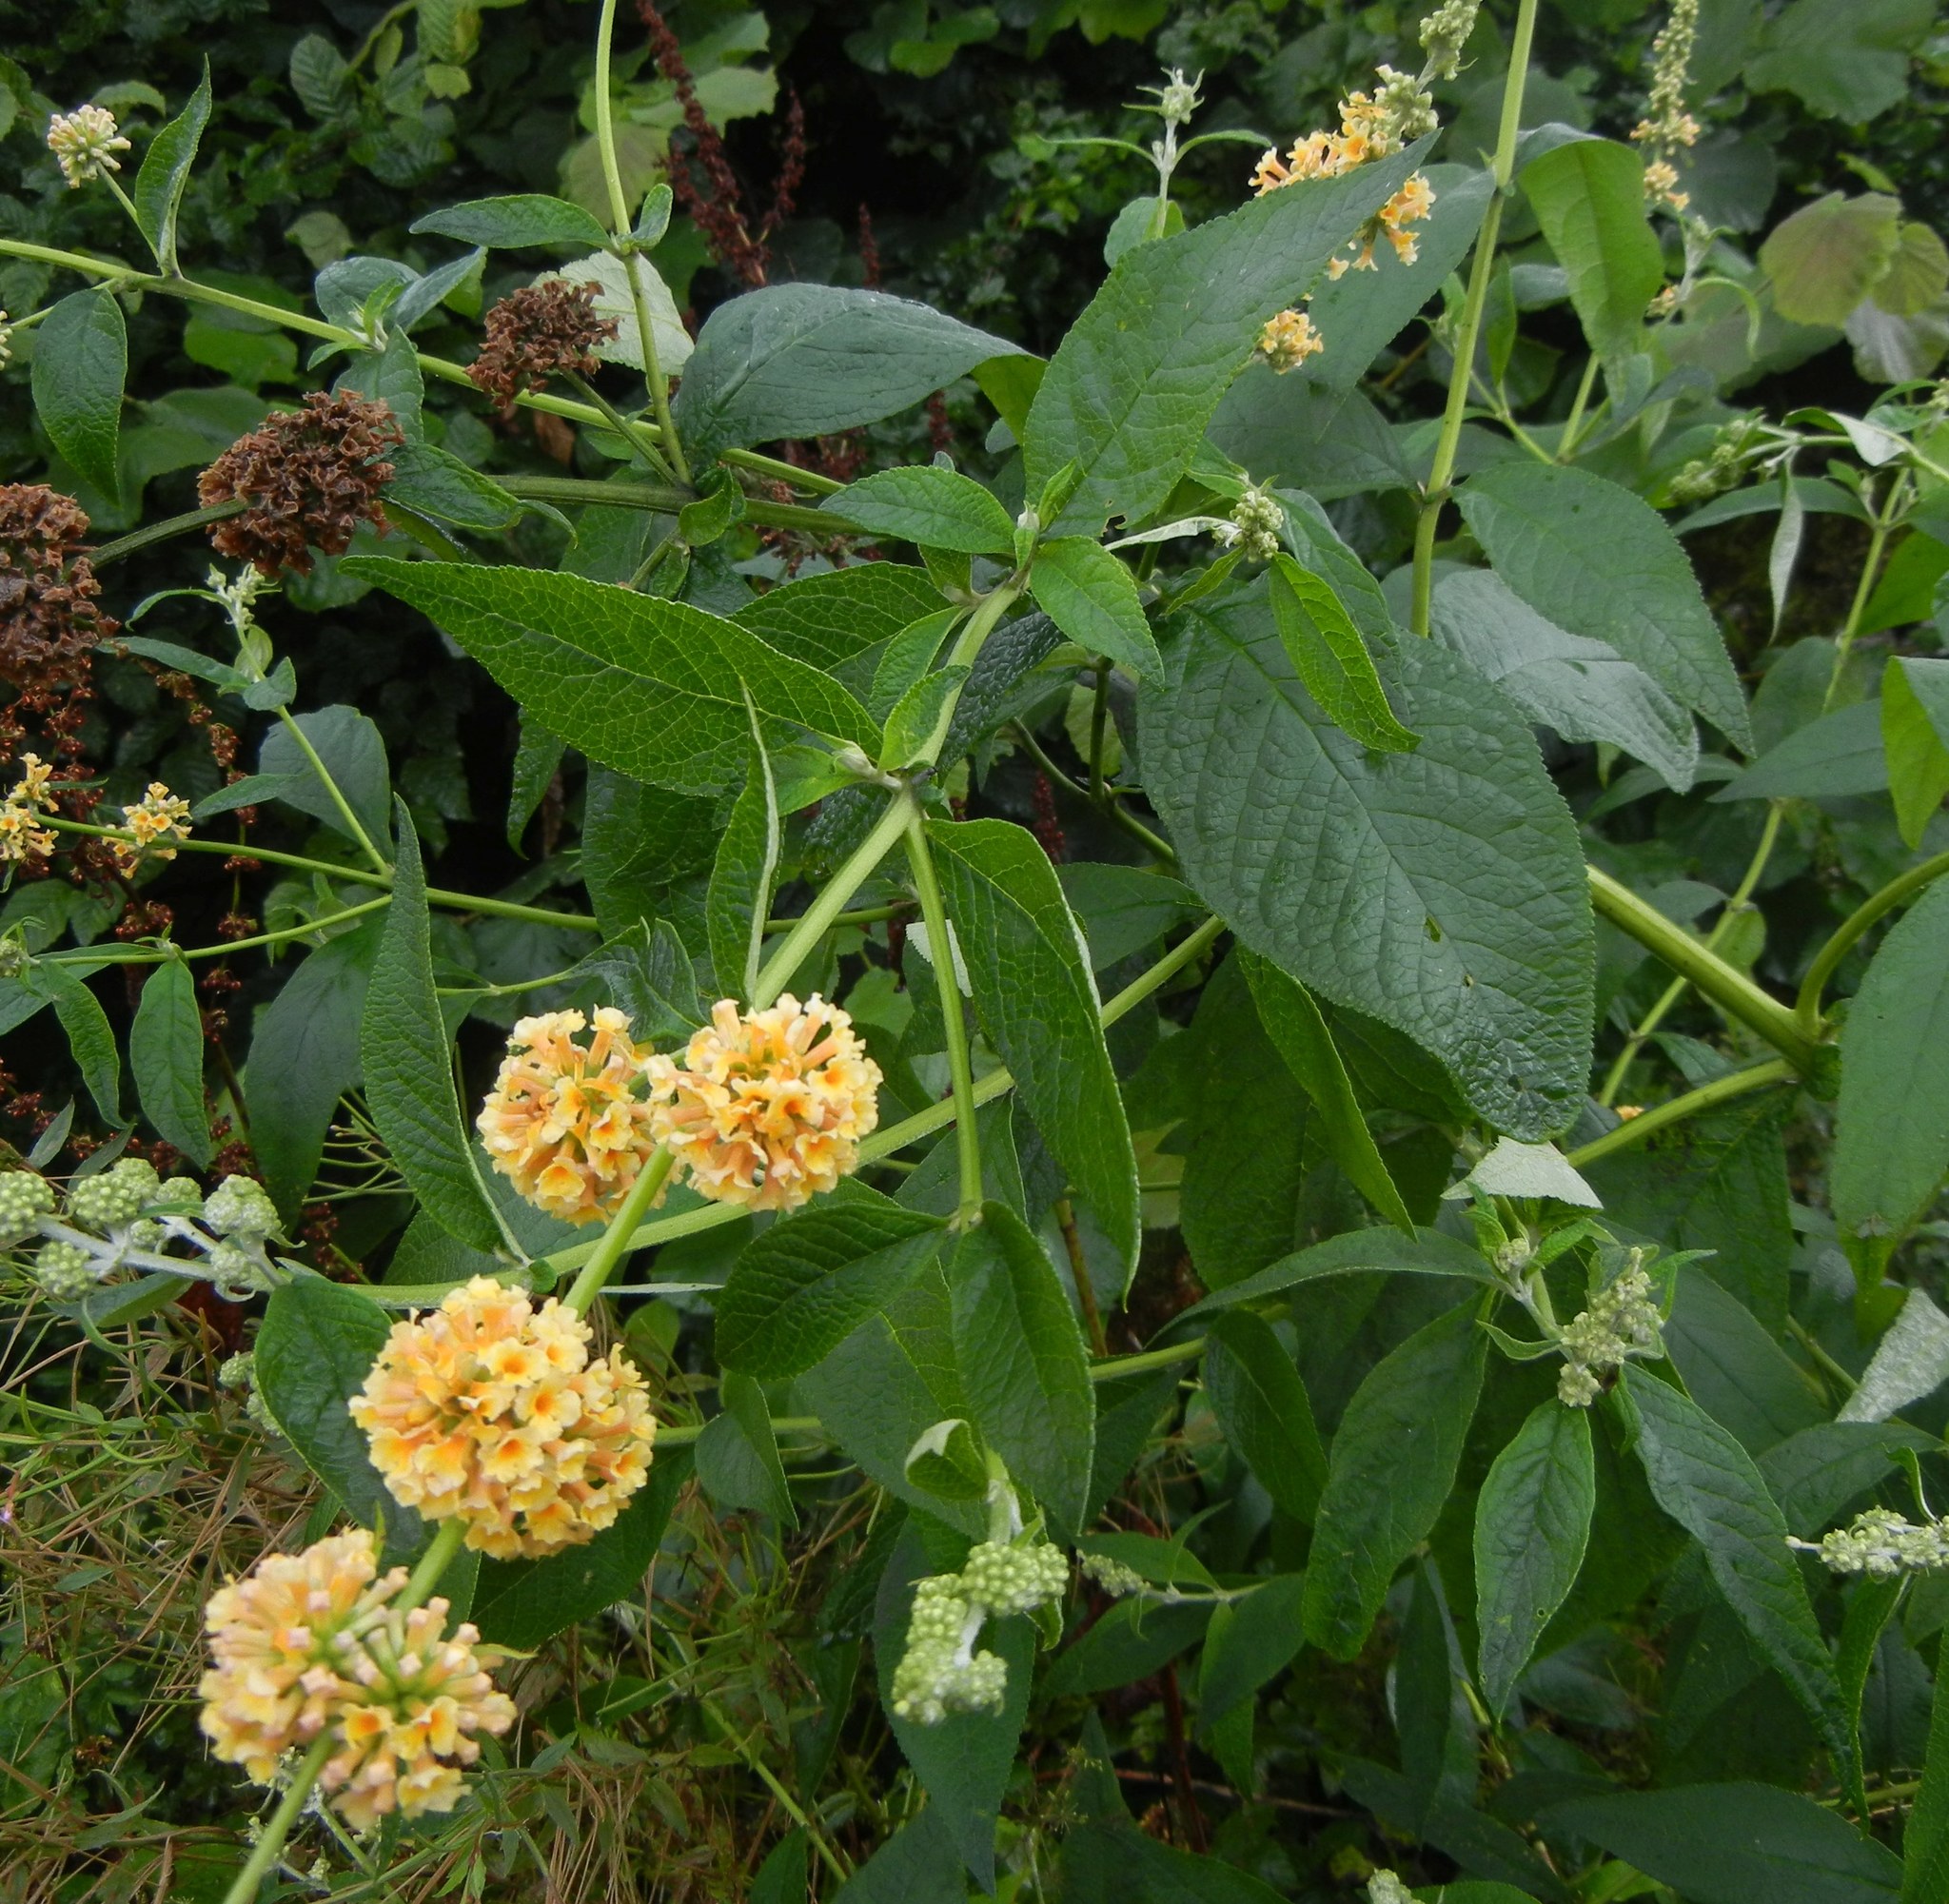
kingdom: Plantae
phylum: Tracheophyta
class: Magnoliopsida
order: Lamiales
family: Scrophulariaceae
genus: Buddleja
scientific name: Buddleja weyeriana
